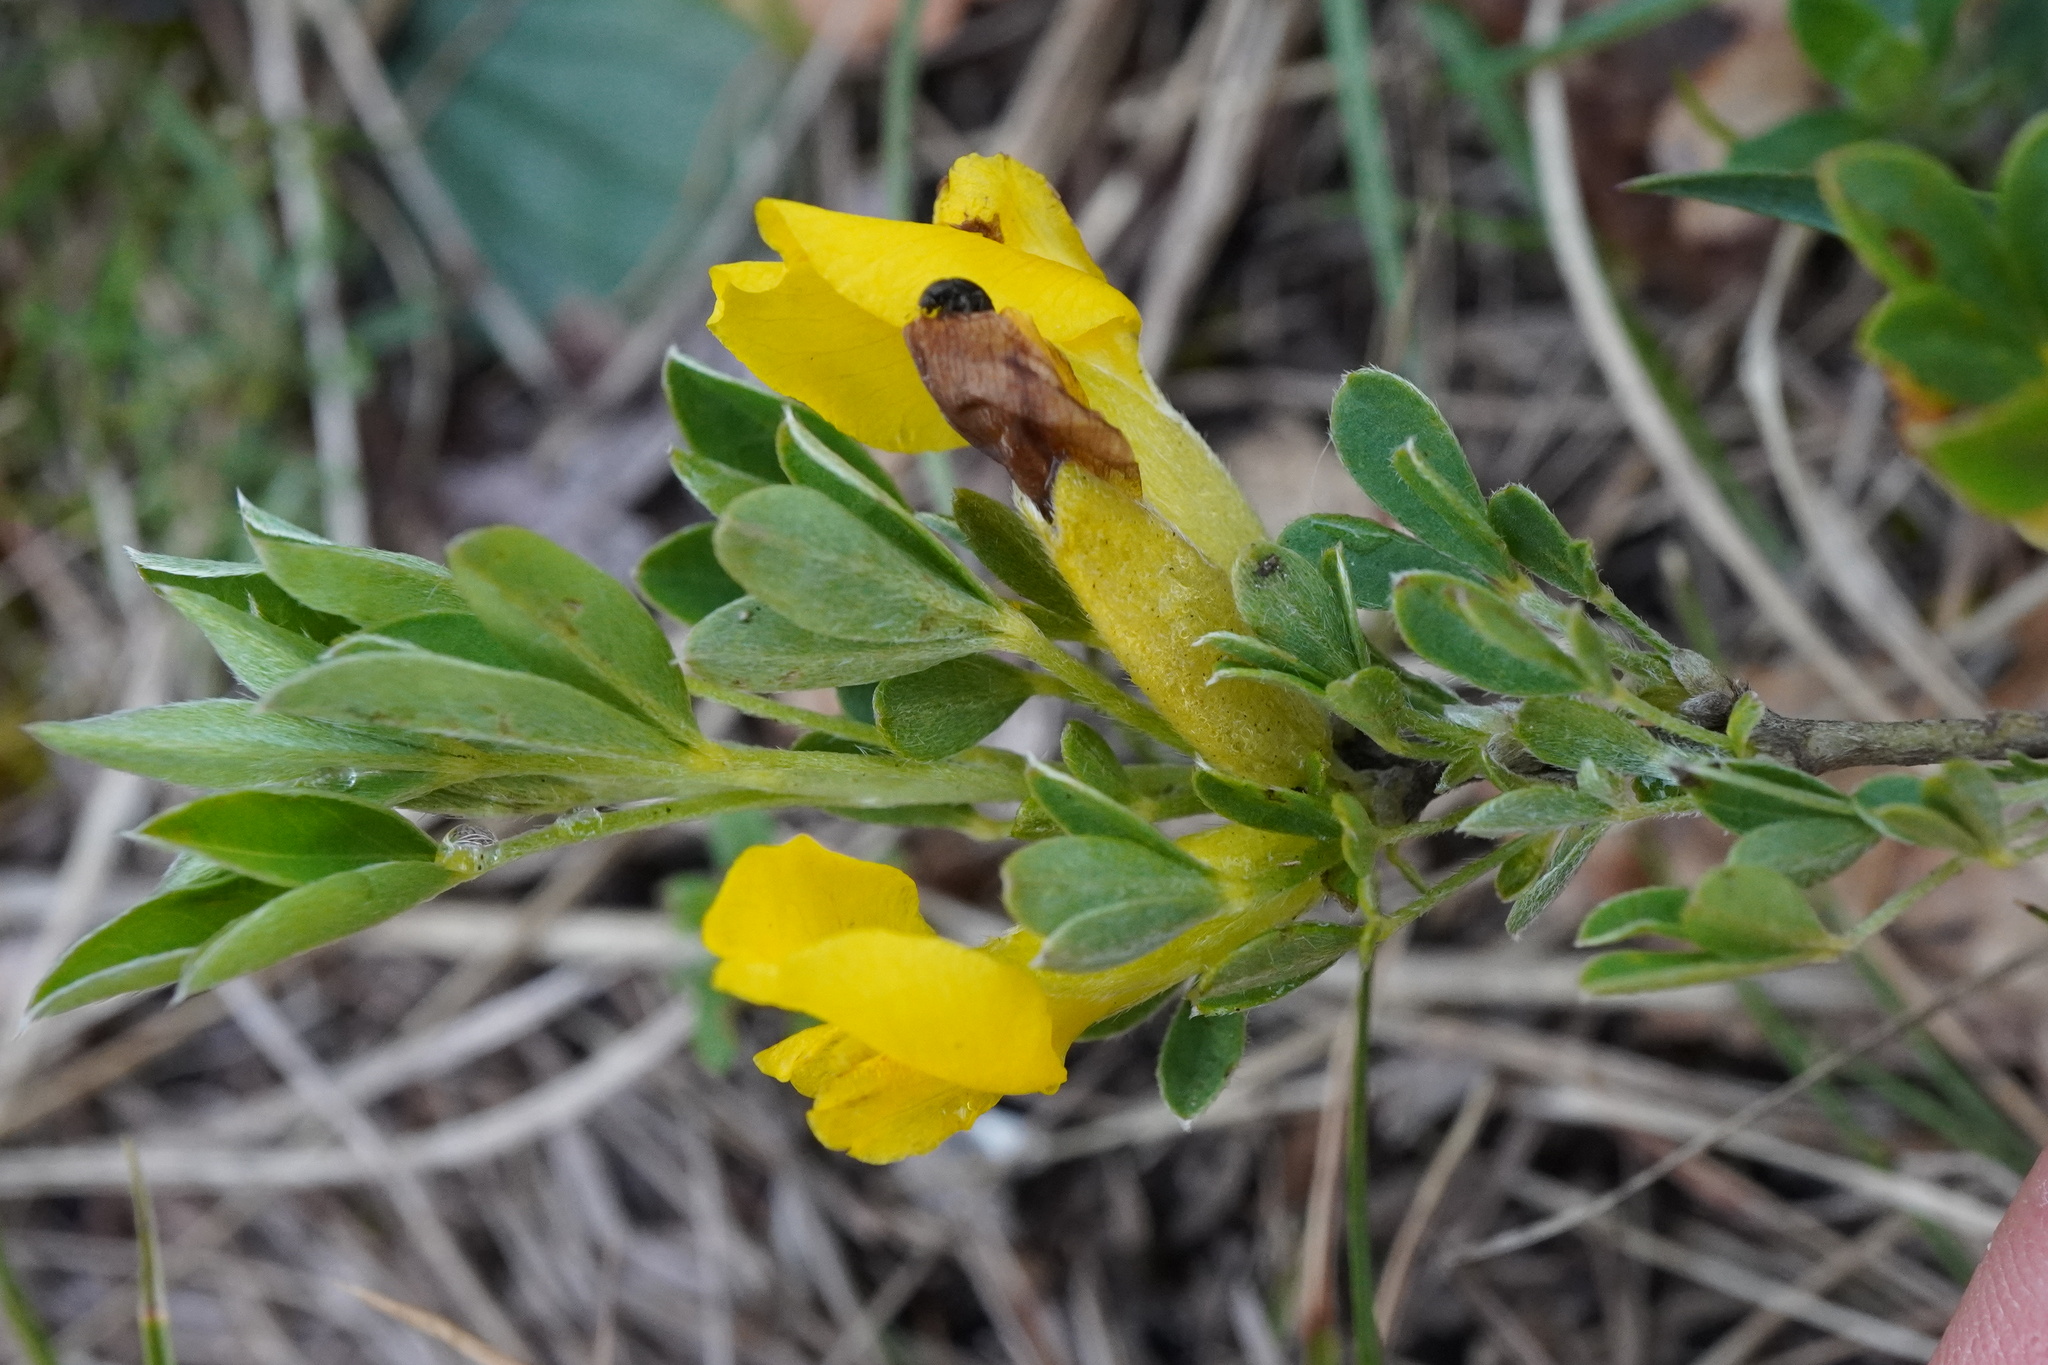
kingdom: Plantae
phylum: Tracheophyta
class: Magnoliopsida
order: Fabales
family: Fabaceae
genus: Chamaecytisus
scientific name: Chamaecytisus ratisbonensis
